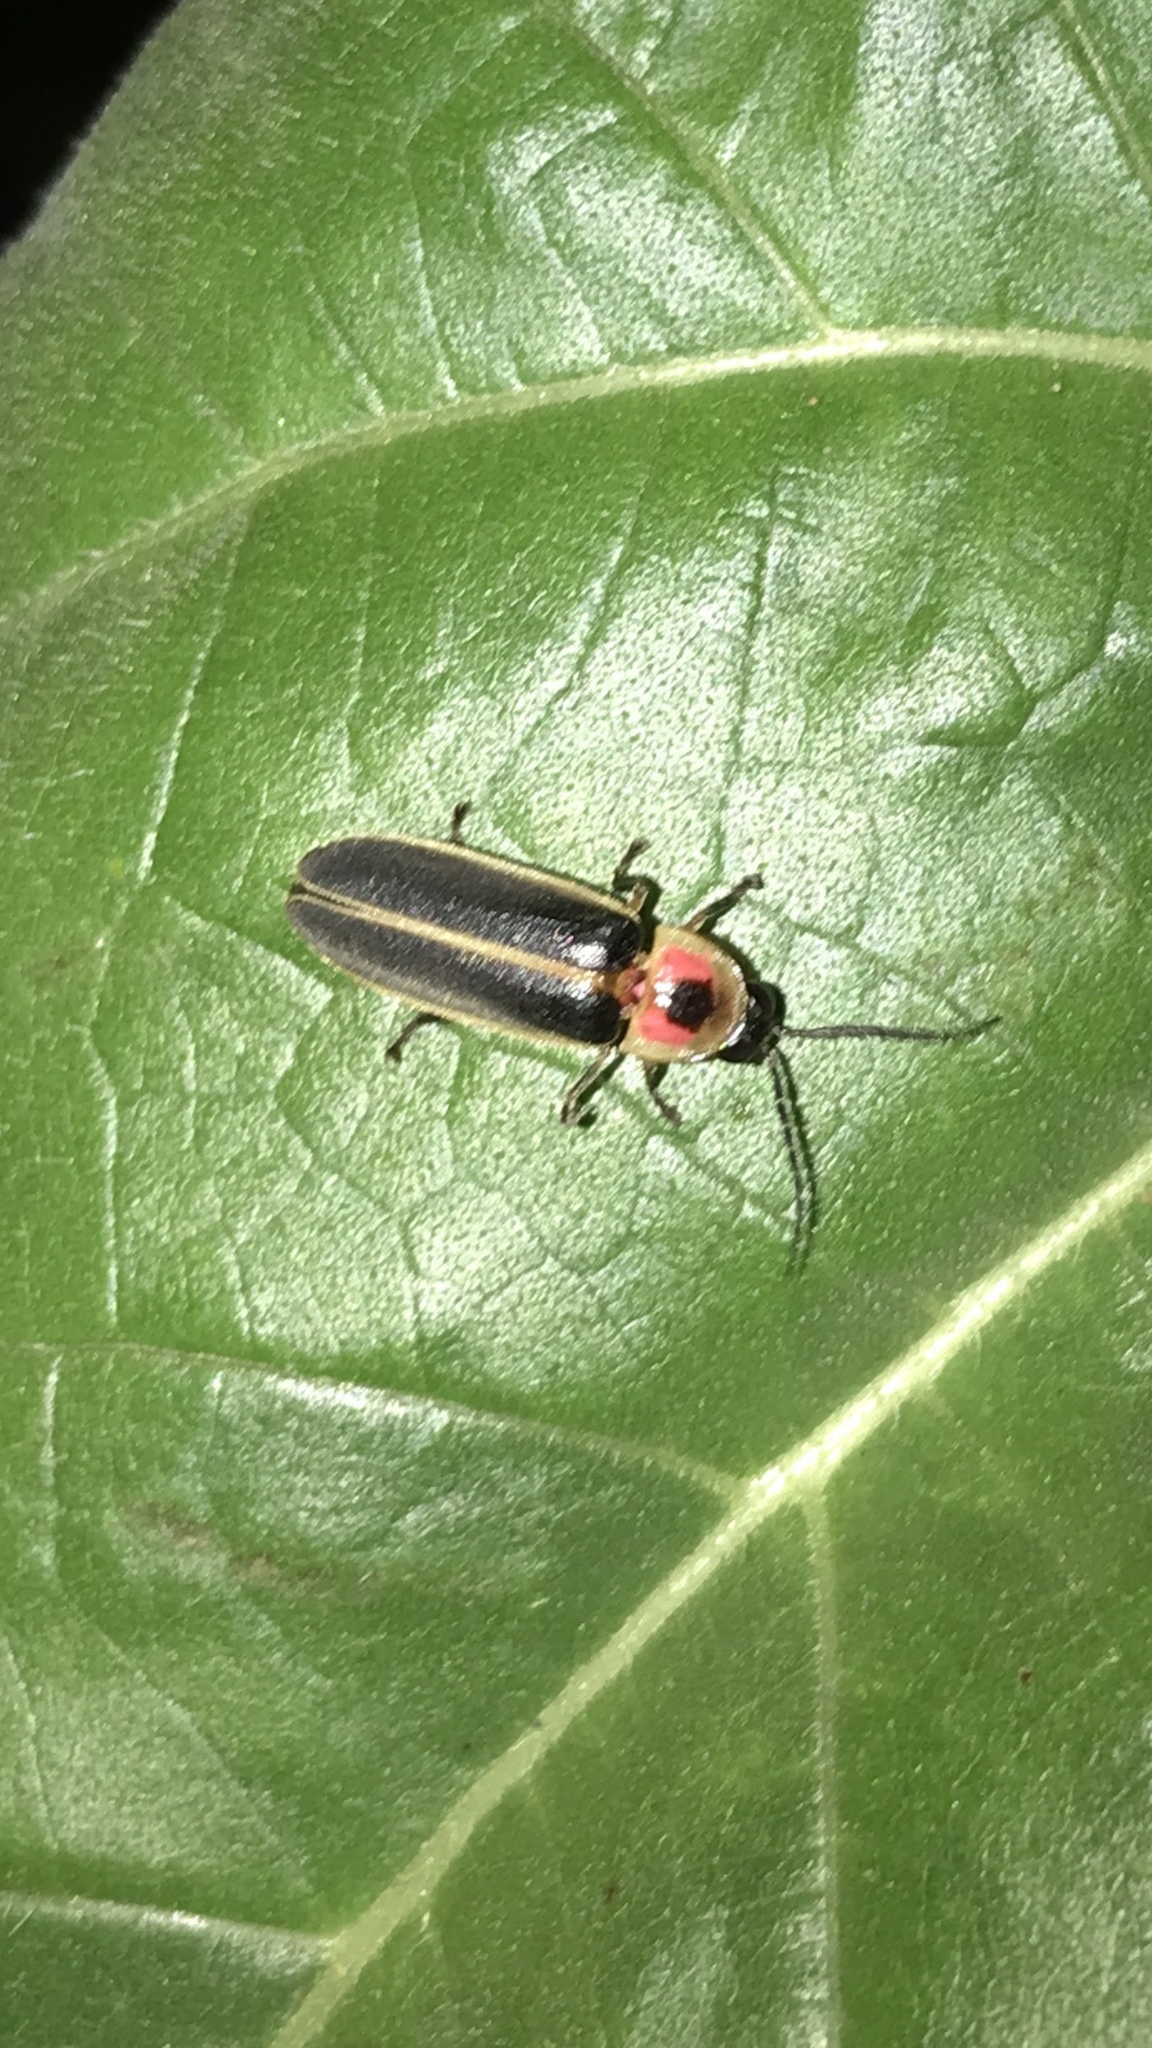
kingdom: Animalia
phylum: Arthropoda
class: Insecta
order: Coleoptera
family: Lampyridae
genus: Photinus
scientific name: Photinus pyralis
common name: Big dipper firefly
